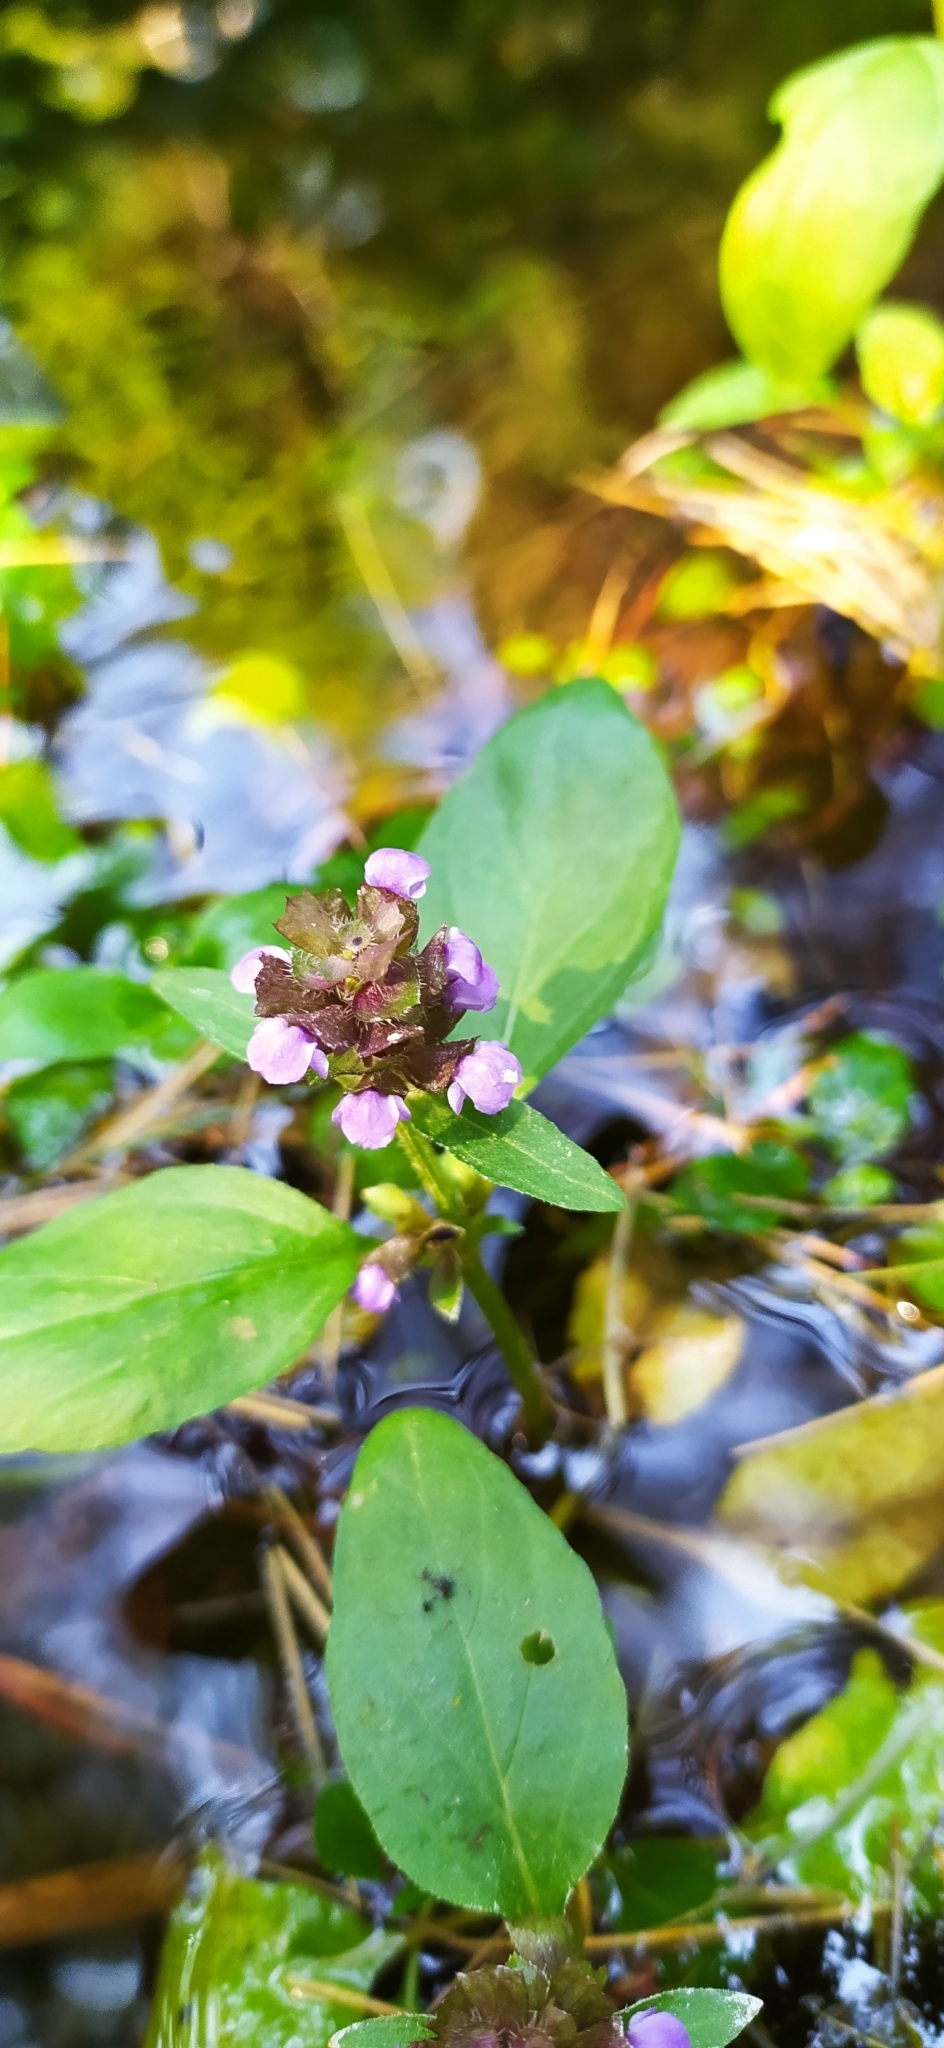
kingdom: Plantae
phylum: Tracheophyta
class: Magnoliopsida
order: Lamiales
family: Lamiaceae
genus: Prunella
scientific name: Prunella vulgaris
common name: Heal-all
